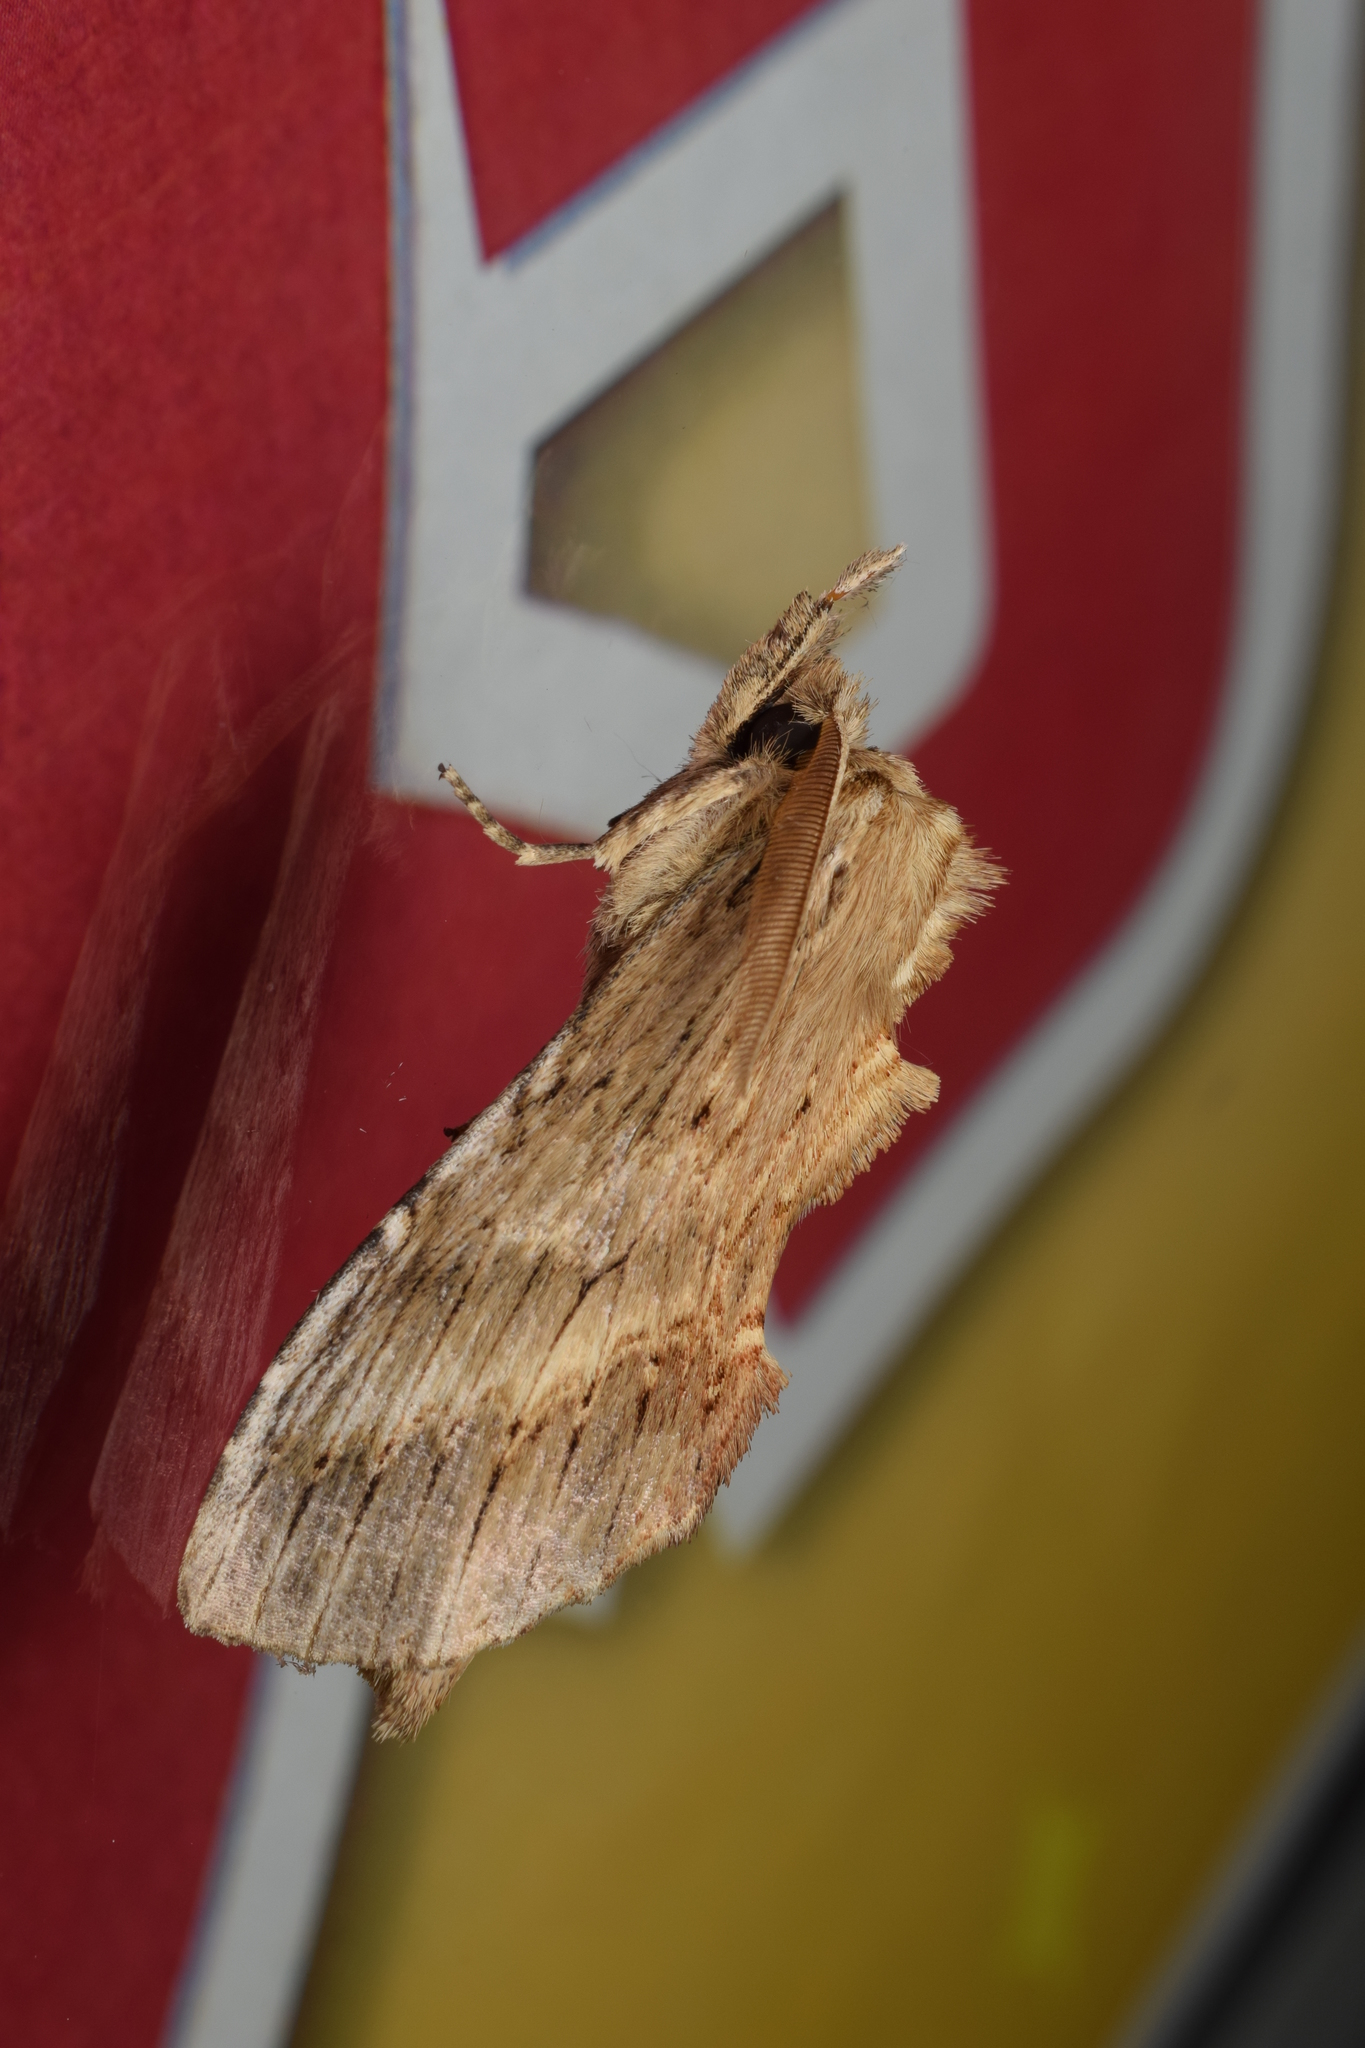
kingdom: Animalia
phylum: Arthropoda
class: Insecta
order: Lepidoptera
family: Notodontidae
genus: Pterostoma
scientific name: Pterostoma gigantina
